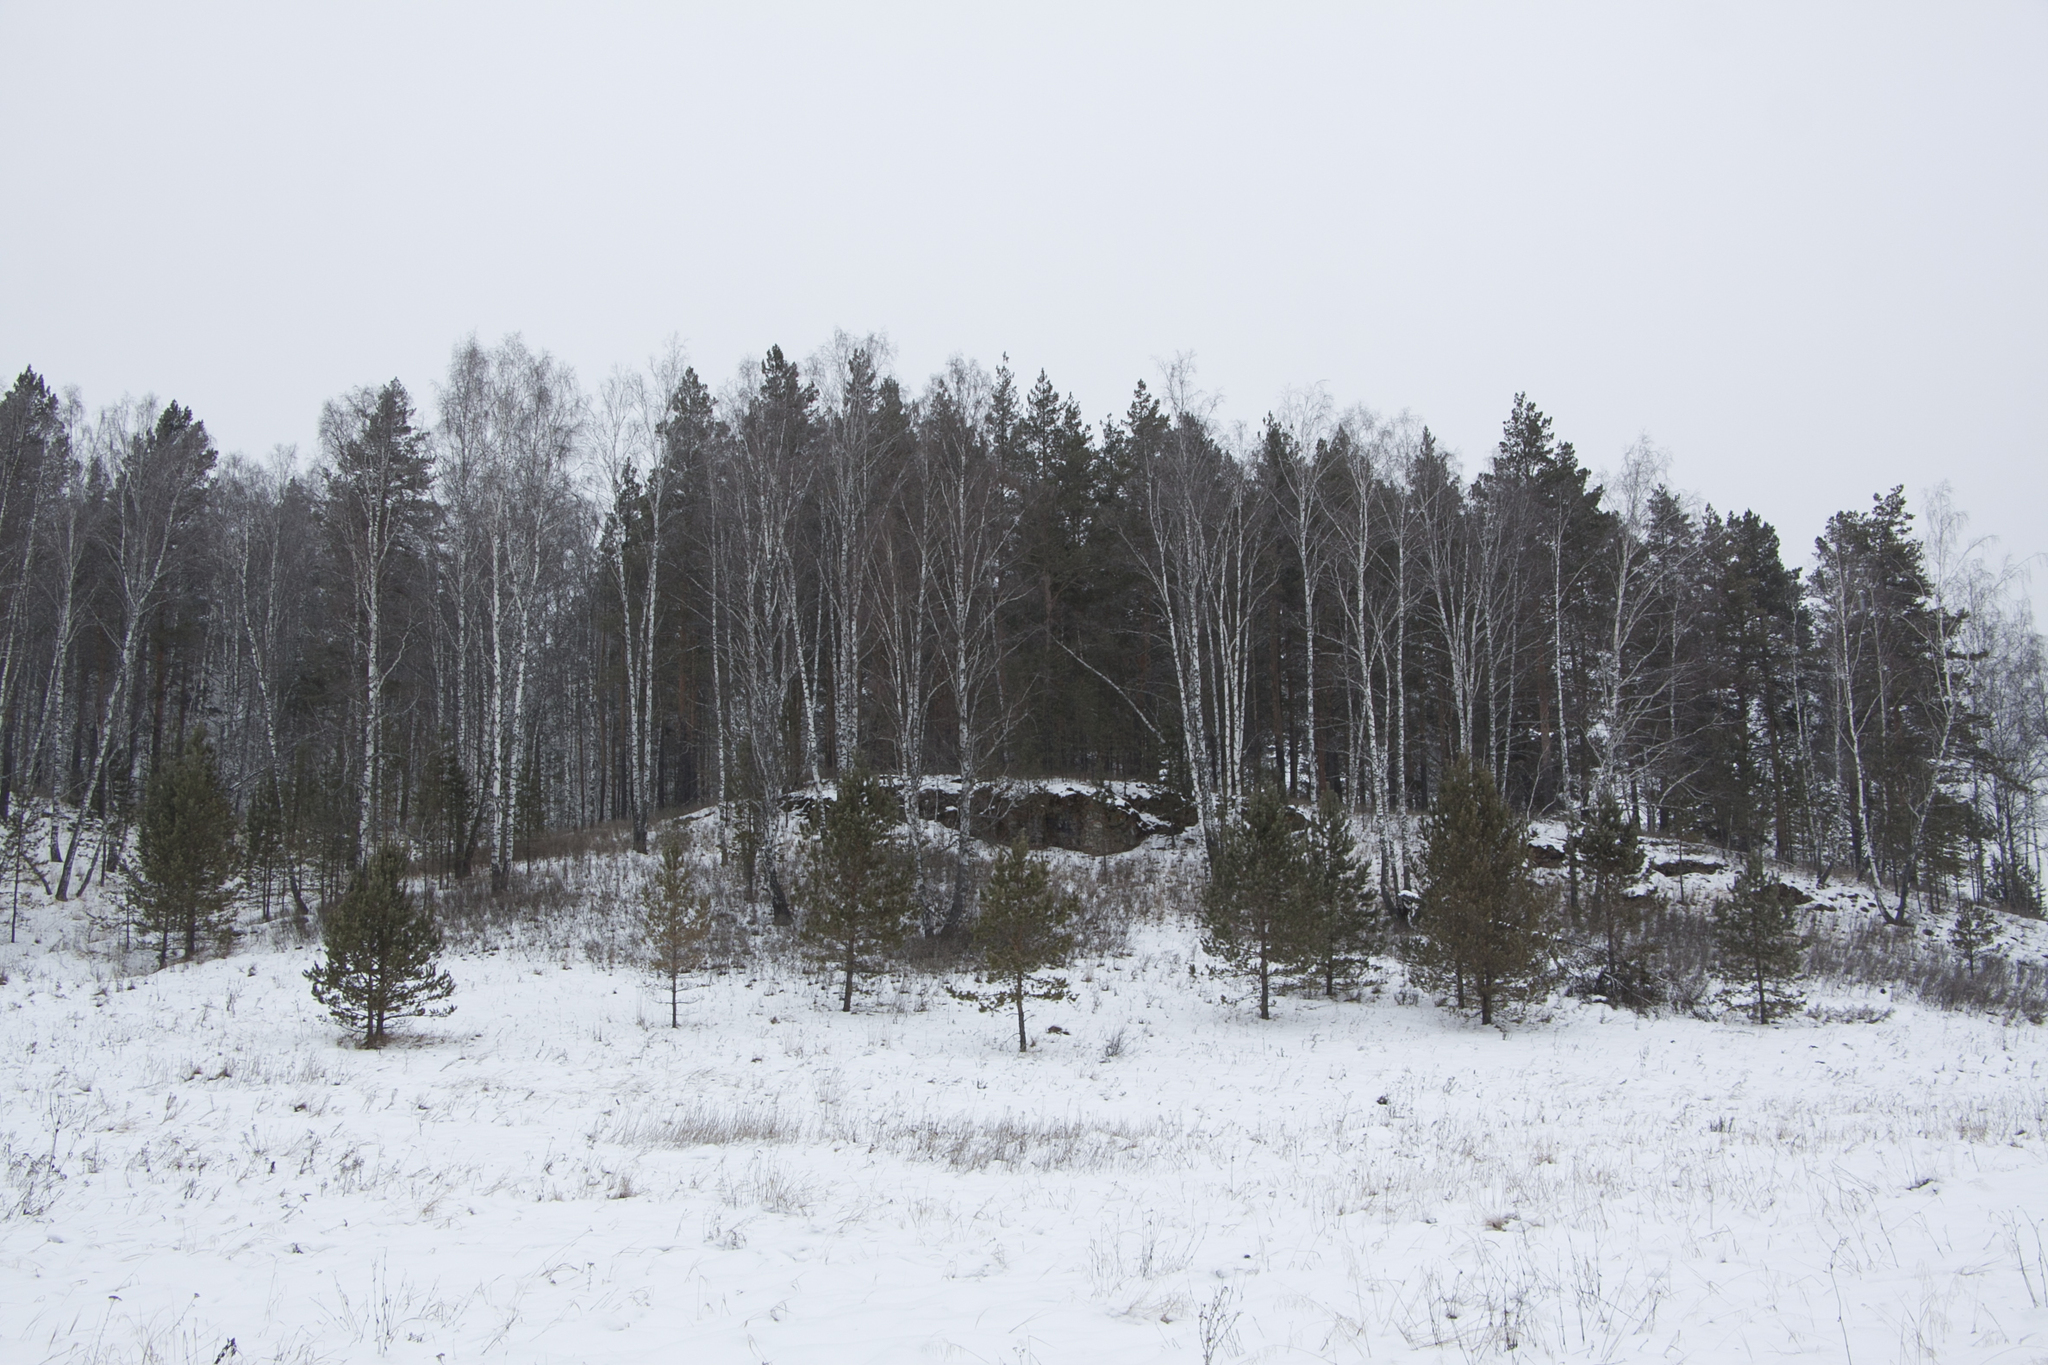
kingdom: Plantae
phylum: Tracheophyta
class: Pinopsida
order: Pinales
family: Pinaceae
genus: Pinus
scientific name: Pinus sylvestris
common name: Scots pine
